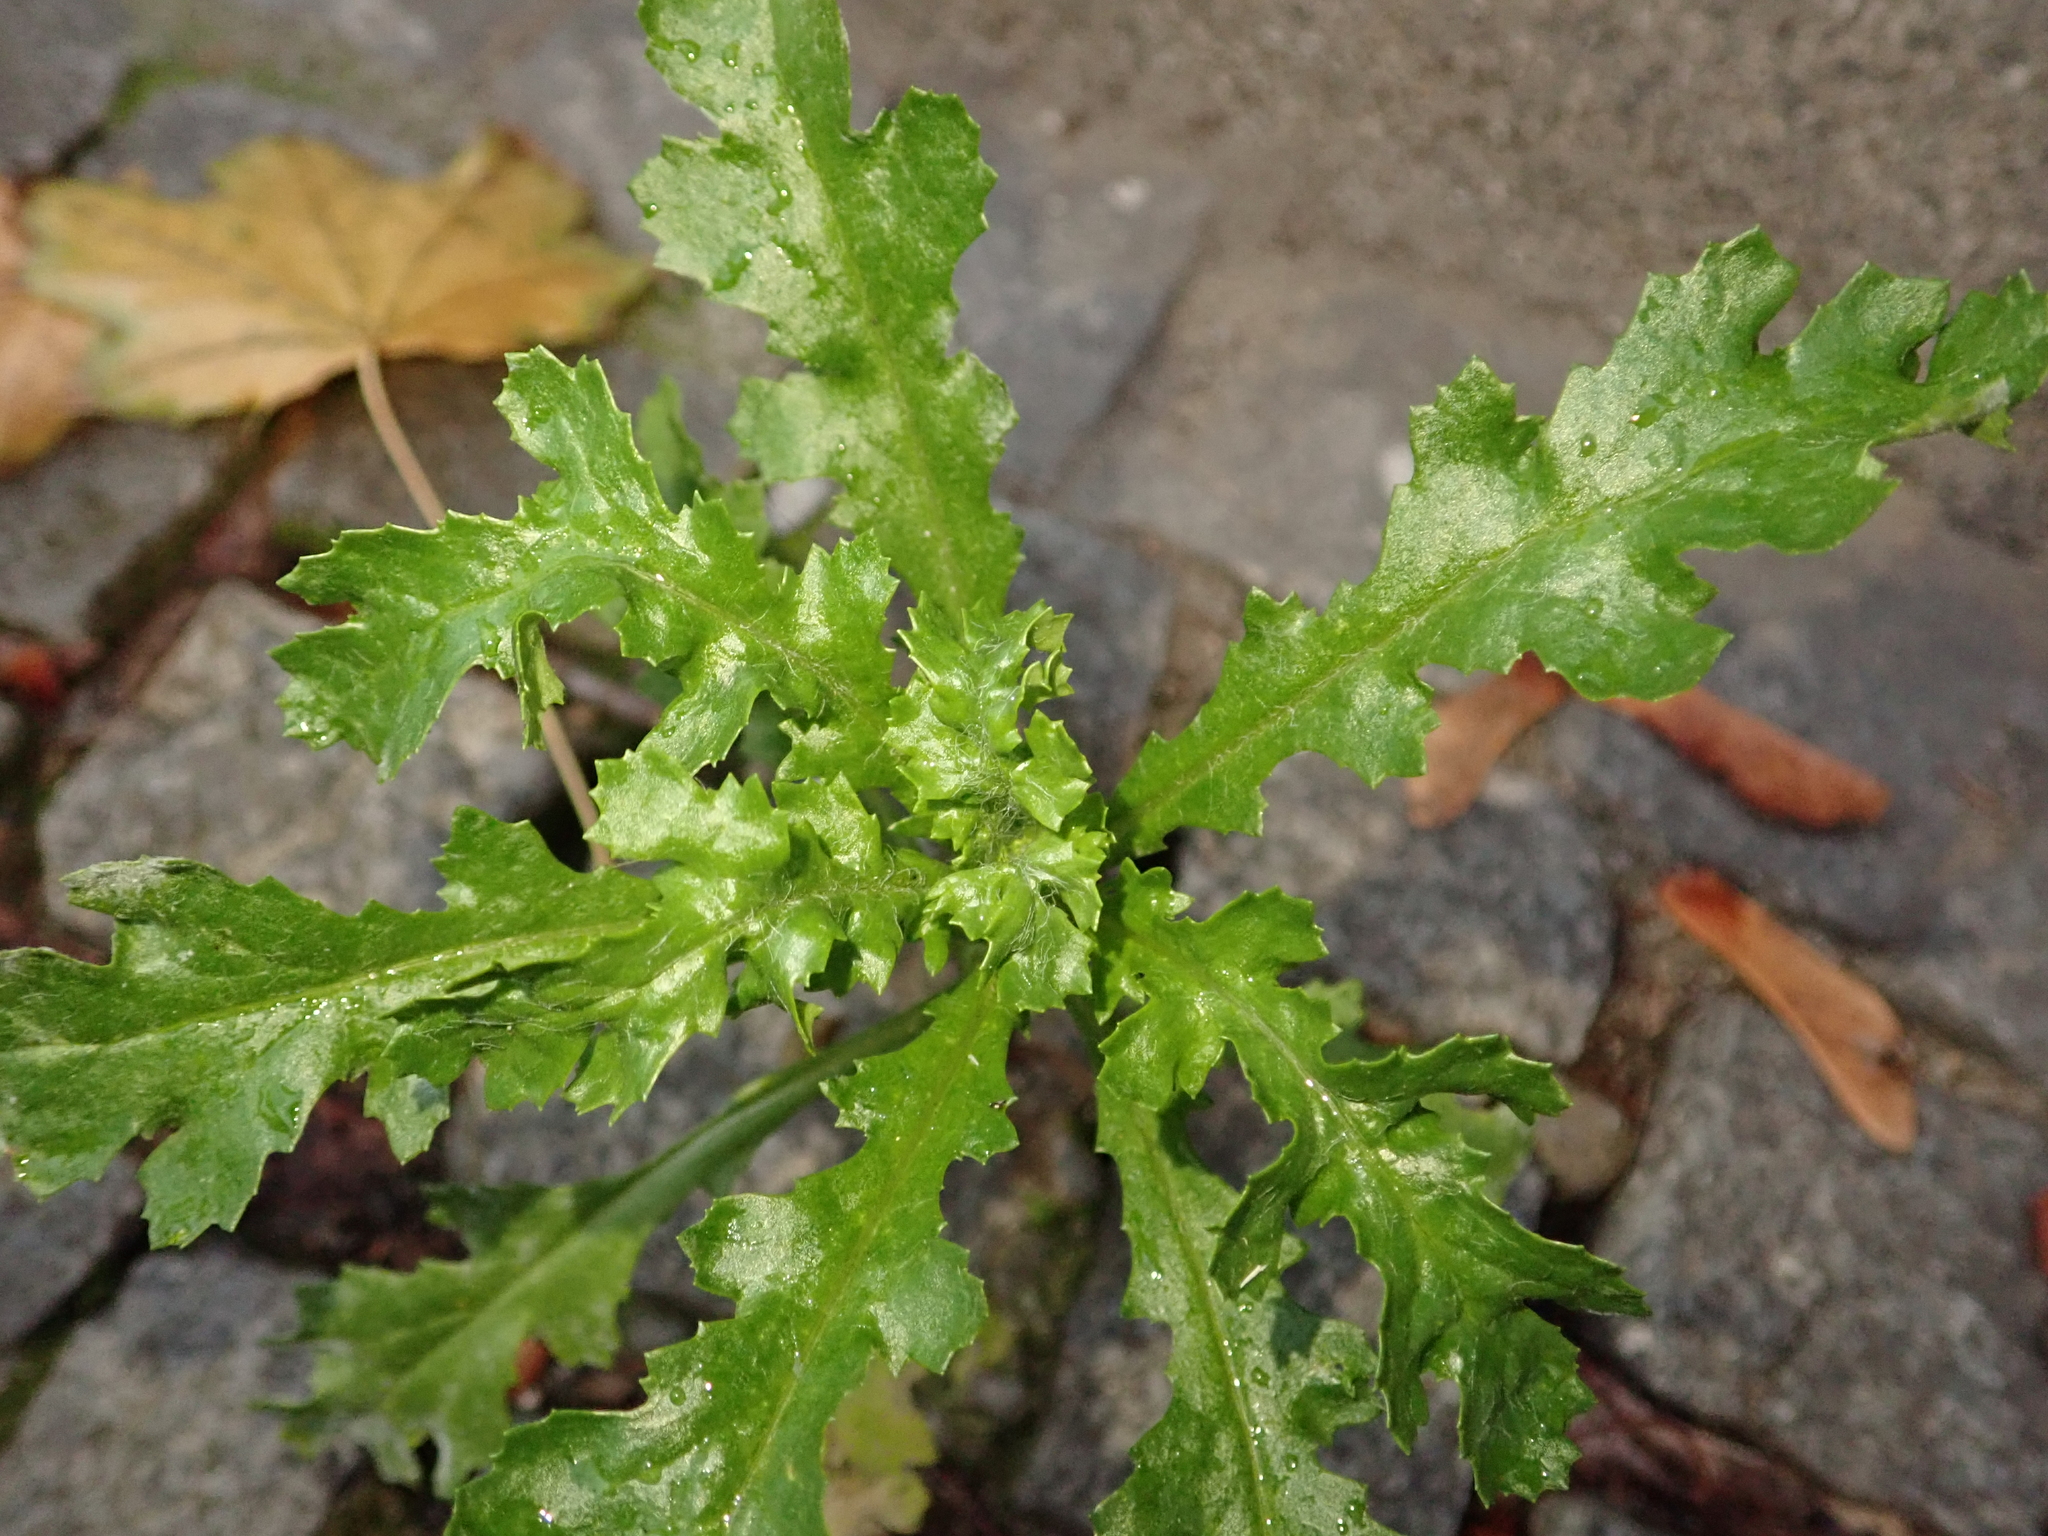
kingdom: Plantae
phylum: Tracheophyta
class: Magnoliopsida
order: Asterales
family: Asteraceae
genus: Senecio
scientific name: Senecio vulgaris
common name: Old-man-in-the-spring
